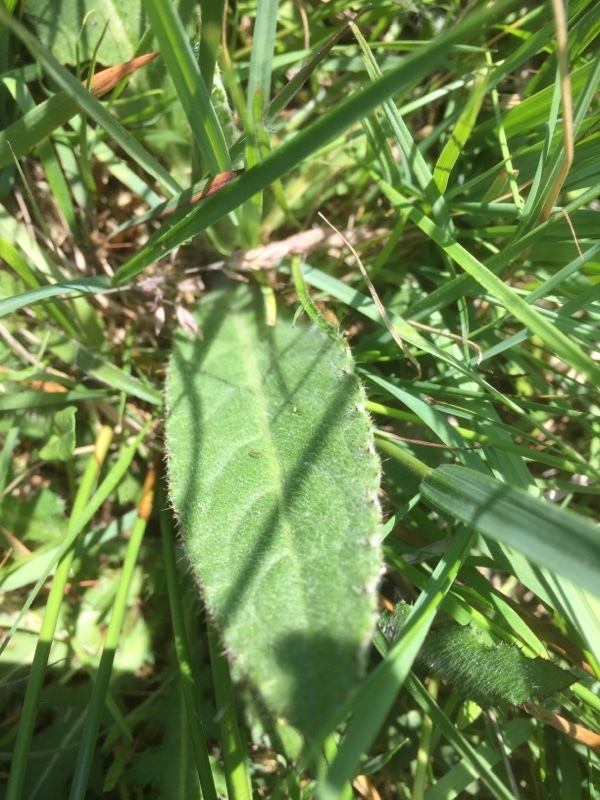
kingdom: Plantae
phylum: Tracheophyta
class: Magnoliopsida
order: Asterales
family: Asteraceae
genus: Cirsium
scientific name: Cirsium dissectum
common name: Meadow thistle
